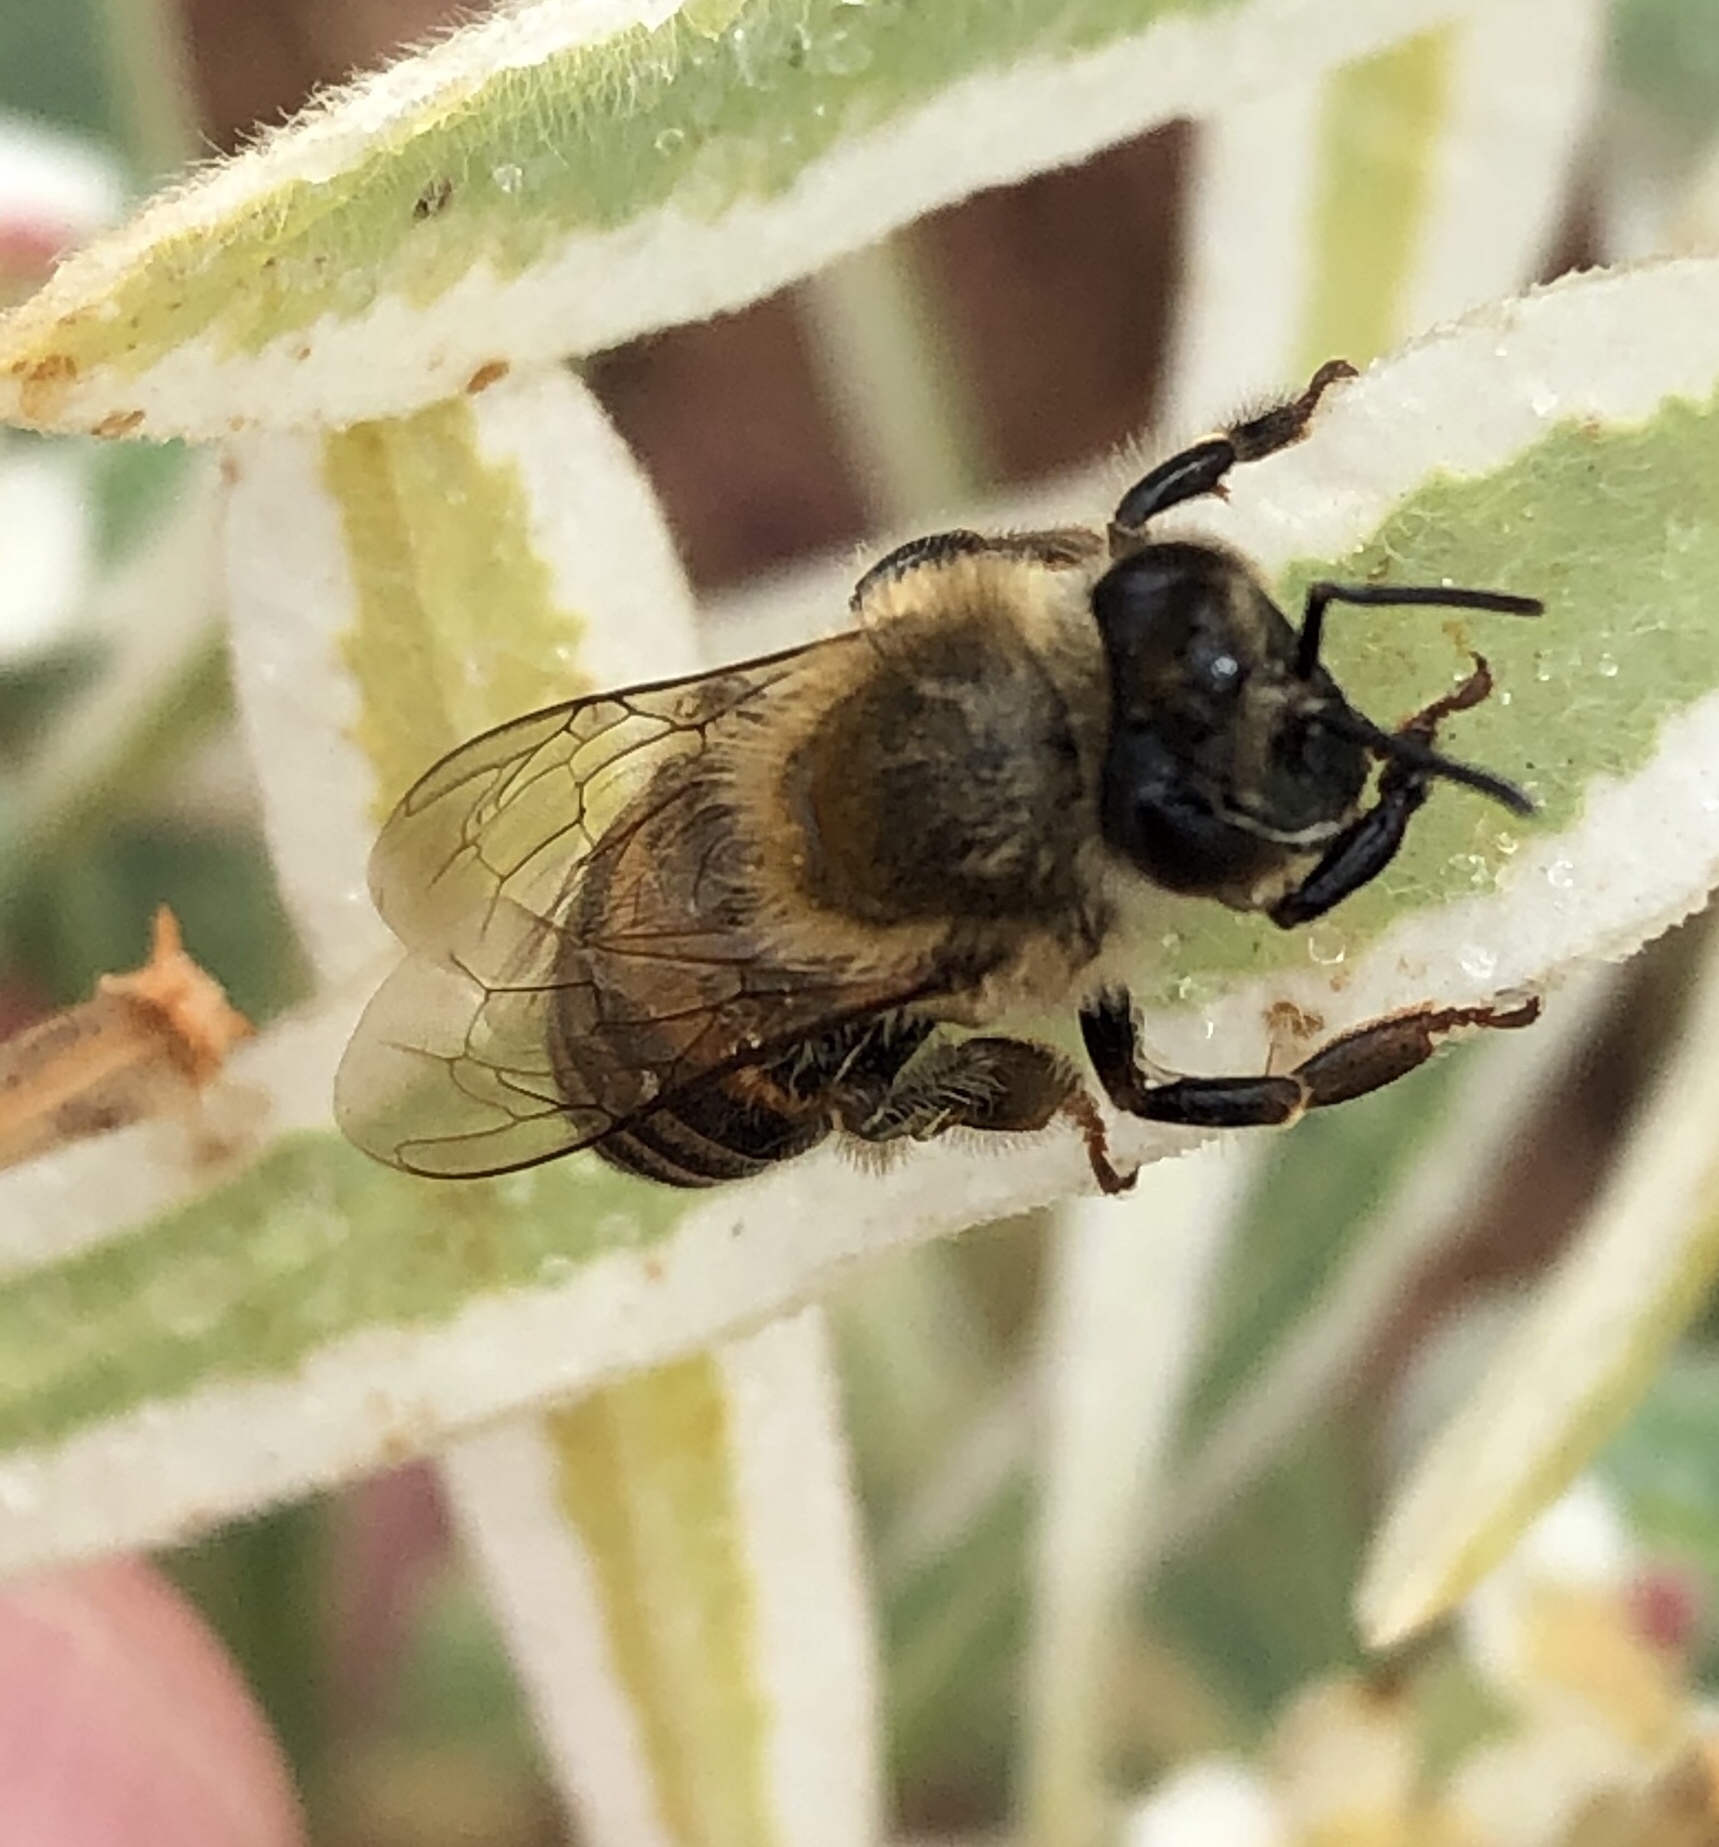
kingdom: Animalia
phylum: Arthropoda
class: Insecta
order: Hymenoptera
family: Apidae
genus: Apis
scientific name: Apis mellifera
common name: Honey bee
